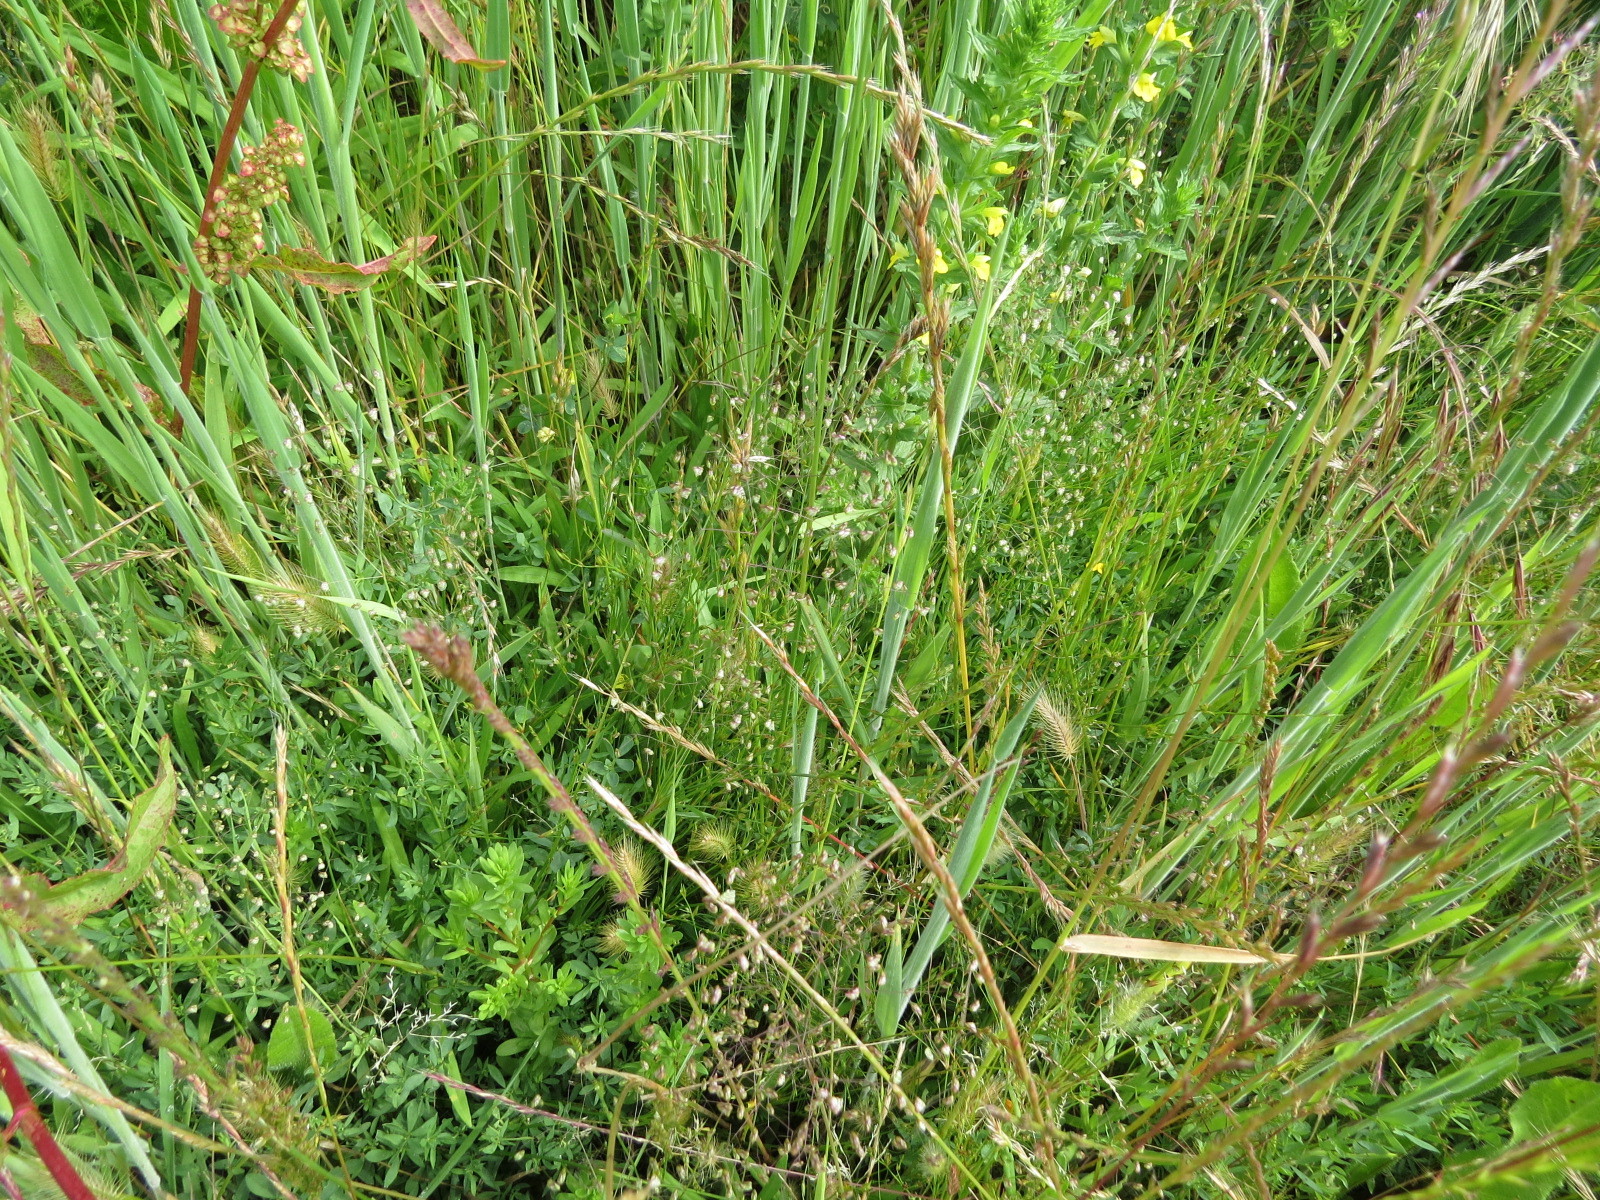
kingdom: Plantae
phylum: Tracheophyta
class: Liliopsida
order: Poales
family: Poaceae
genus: Briza
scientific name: Briza minor
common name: Lesser quaking-grass
